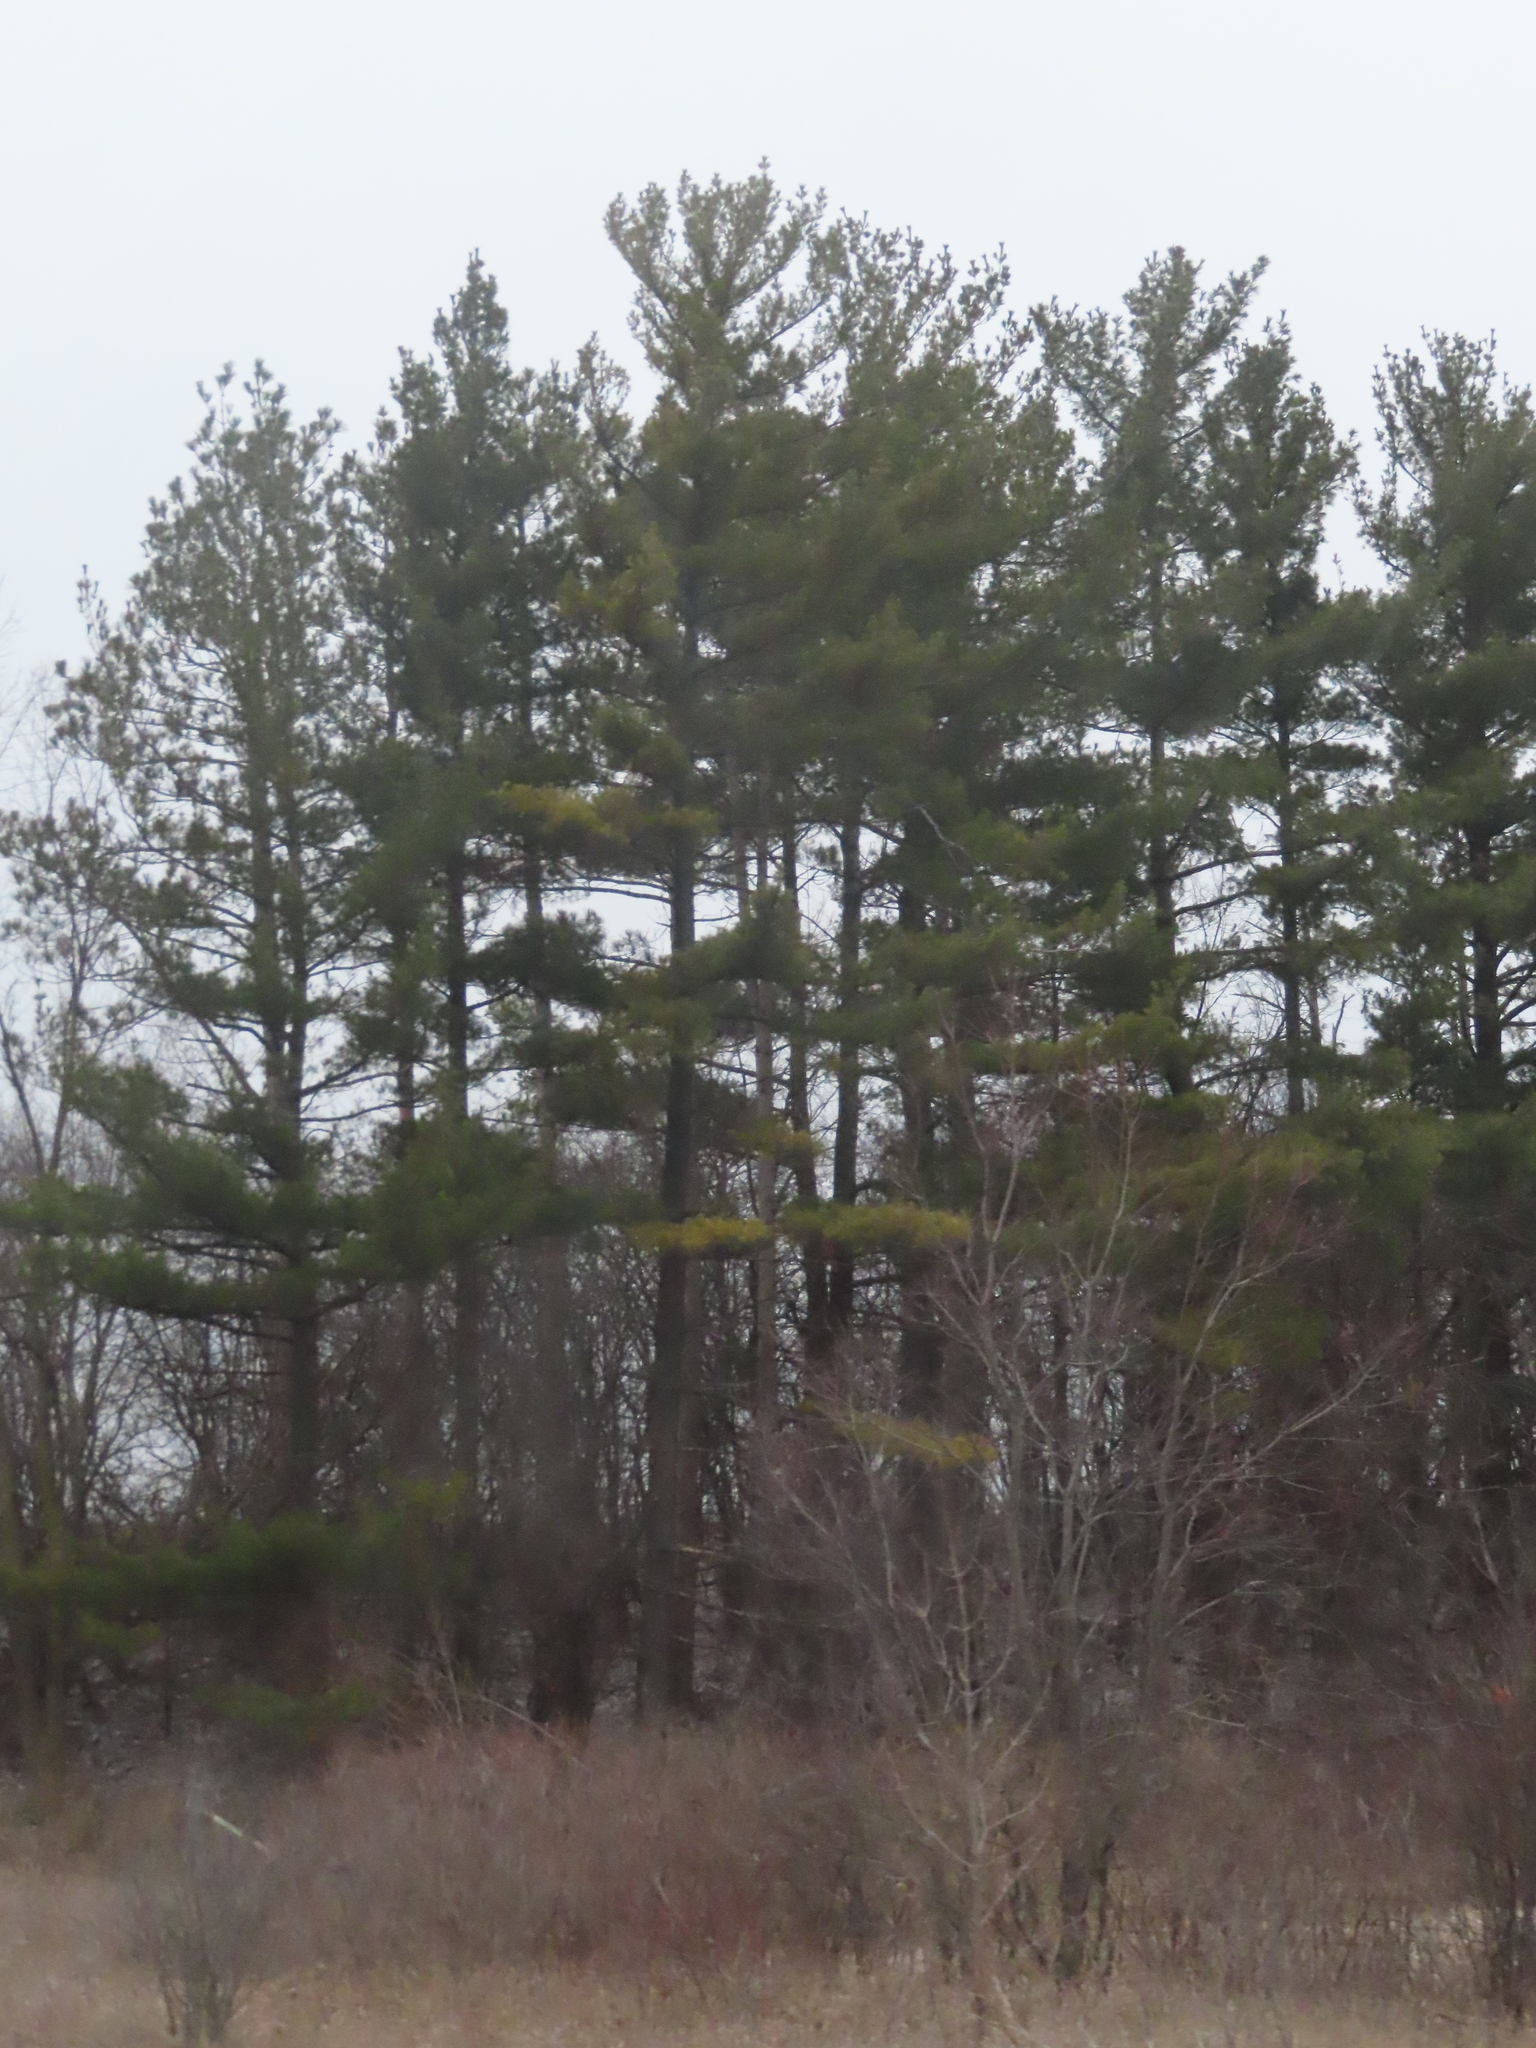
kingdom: Plantae
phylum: Tracheophyta
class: Pinopsida
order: Pinales
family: Pinaceae
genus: Pinus
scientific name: Pinus strobus
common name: Weymouth pine
